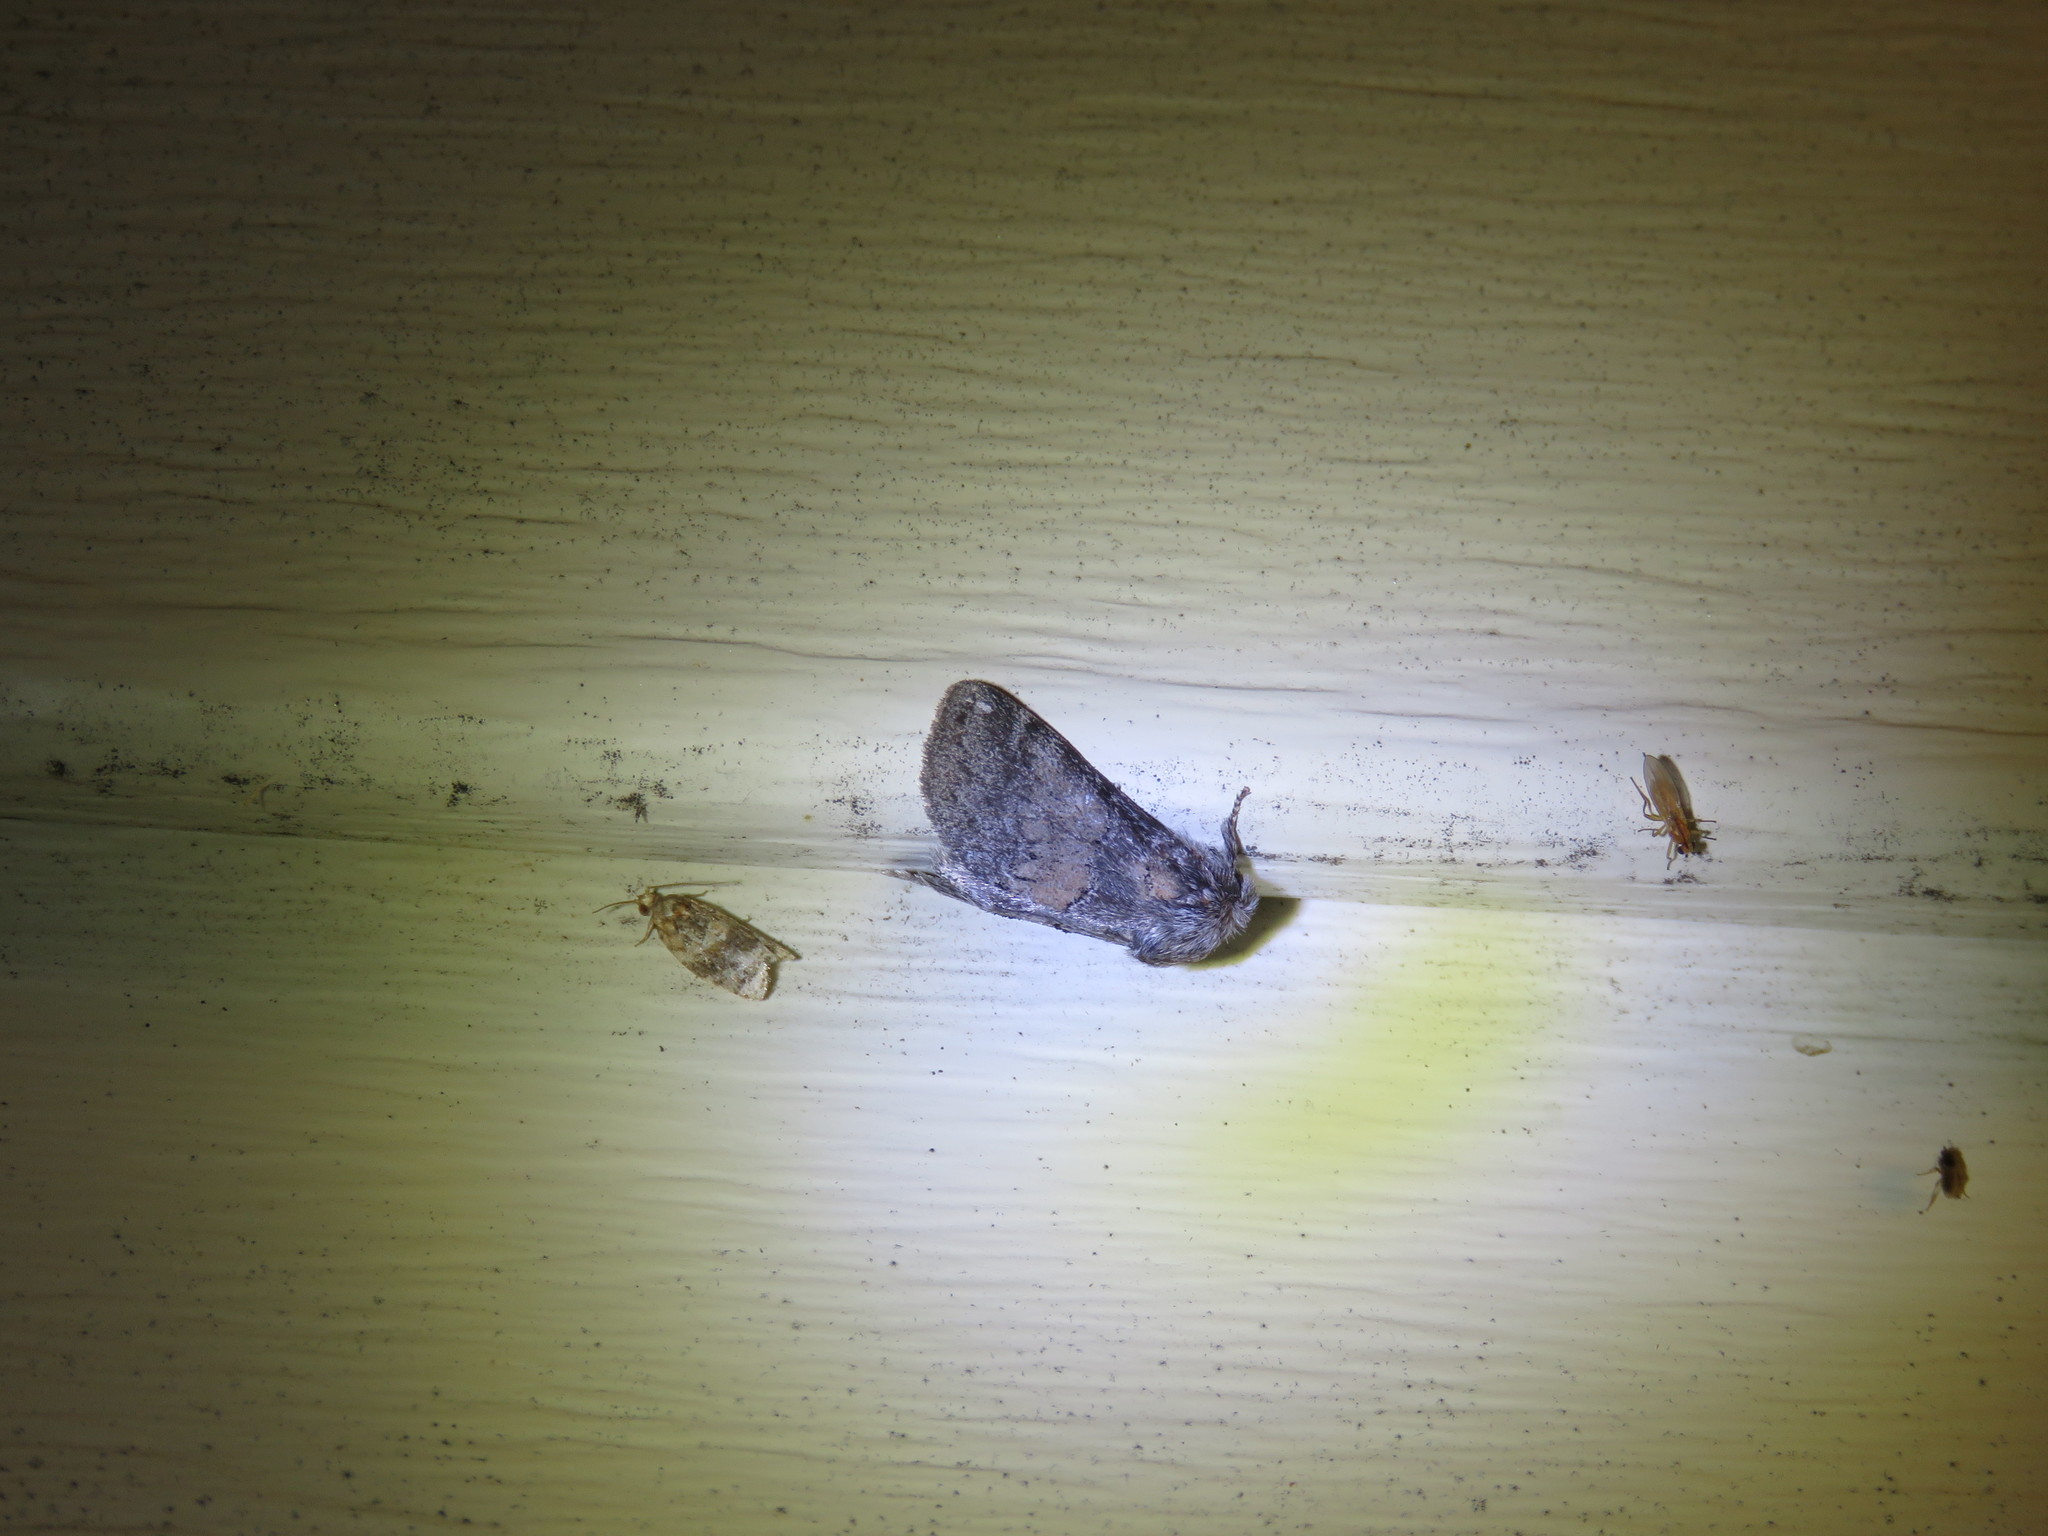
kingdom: Animalia
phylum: Arthropoda
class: Insecta
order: Lepidoptera
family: Notodontidae
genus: Gluphisia
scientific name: Gluphisia septentrionis
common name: Common gluphisia
